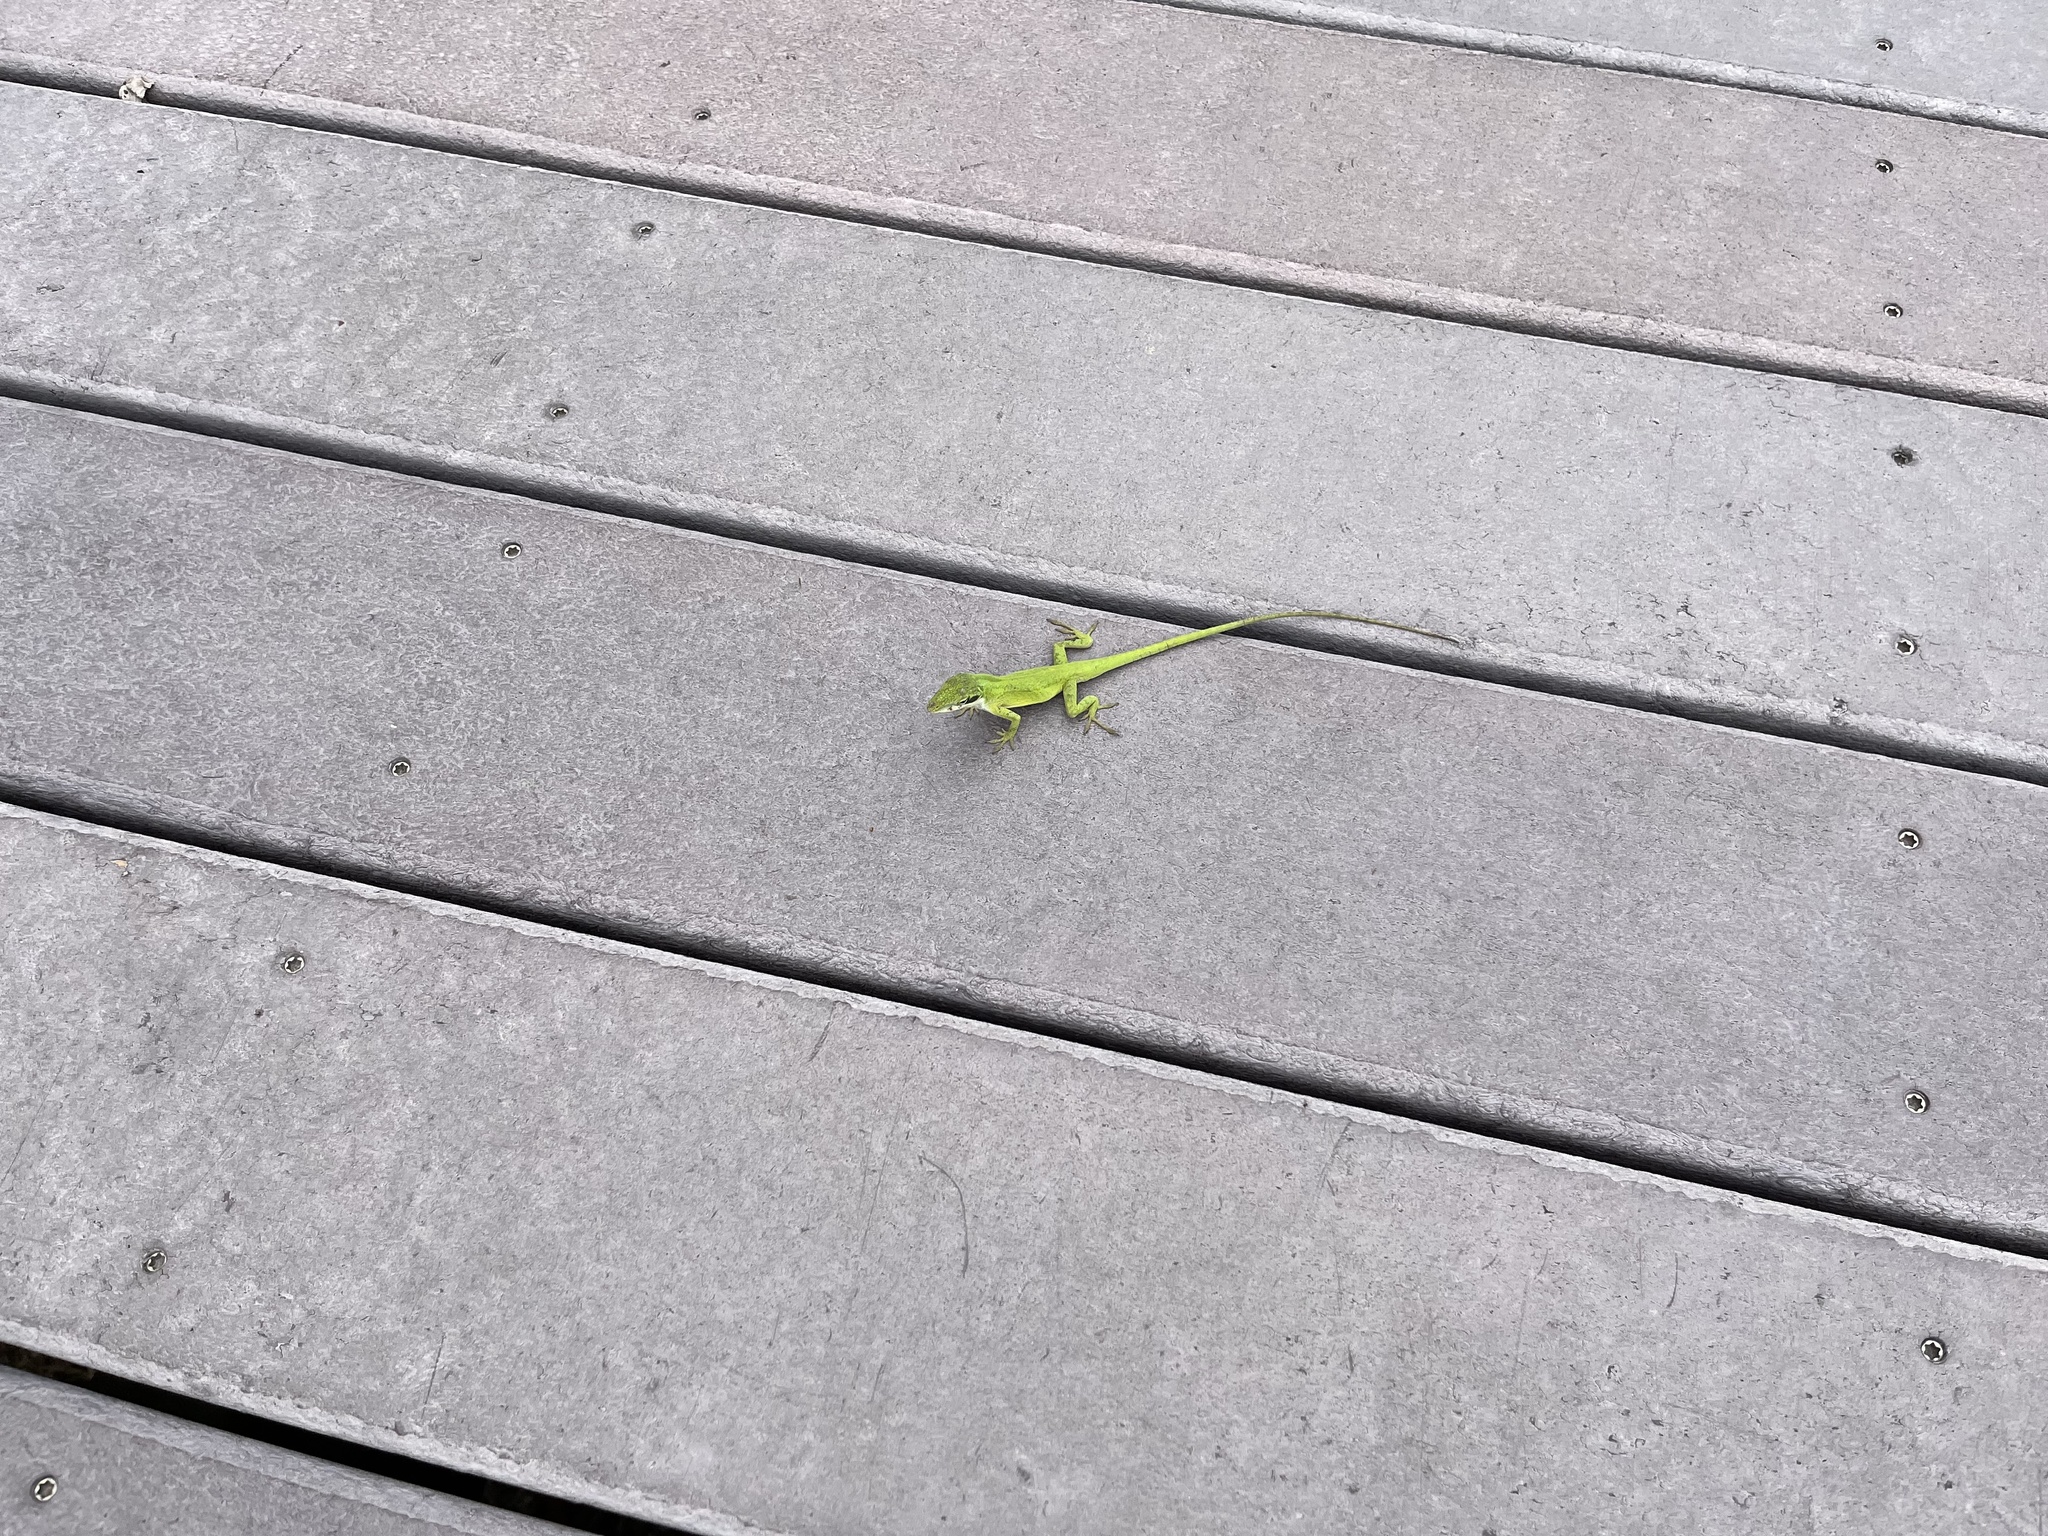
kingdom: Animalia
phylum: Chordata
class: Squamata
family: Dactyloidae
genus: Anolis
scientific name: Anolis carolinensis
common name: Green anole
